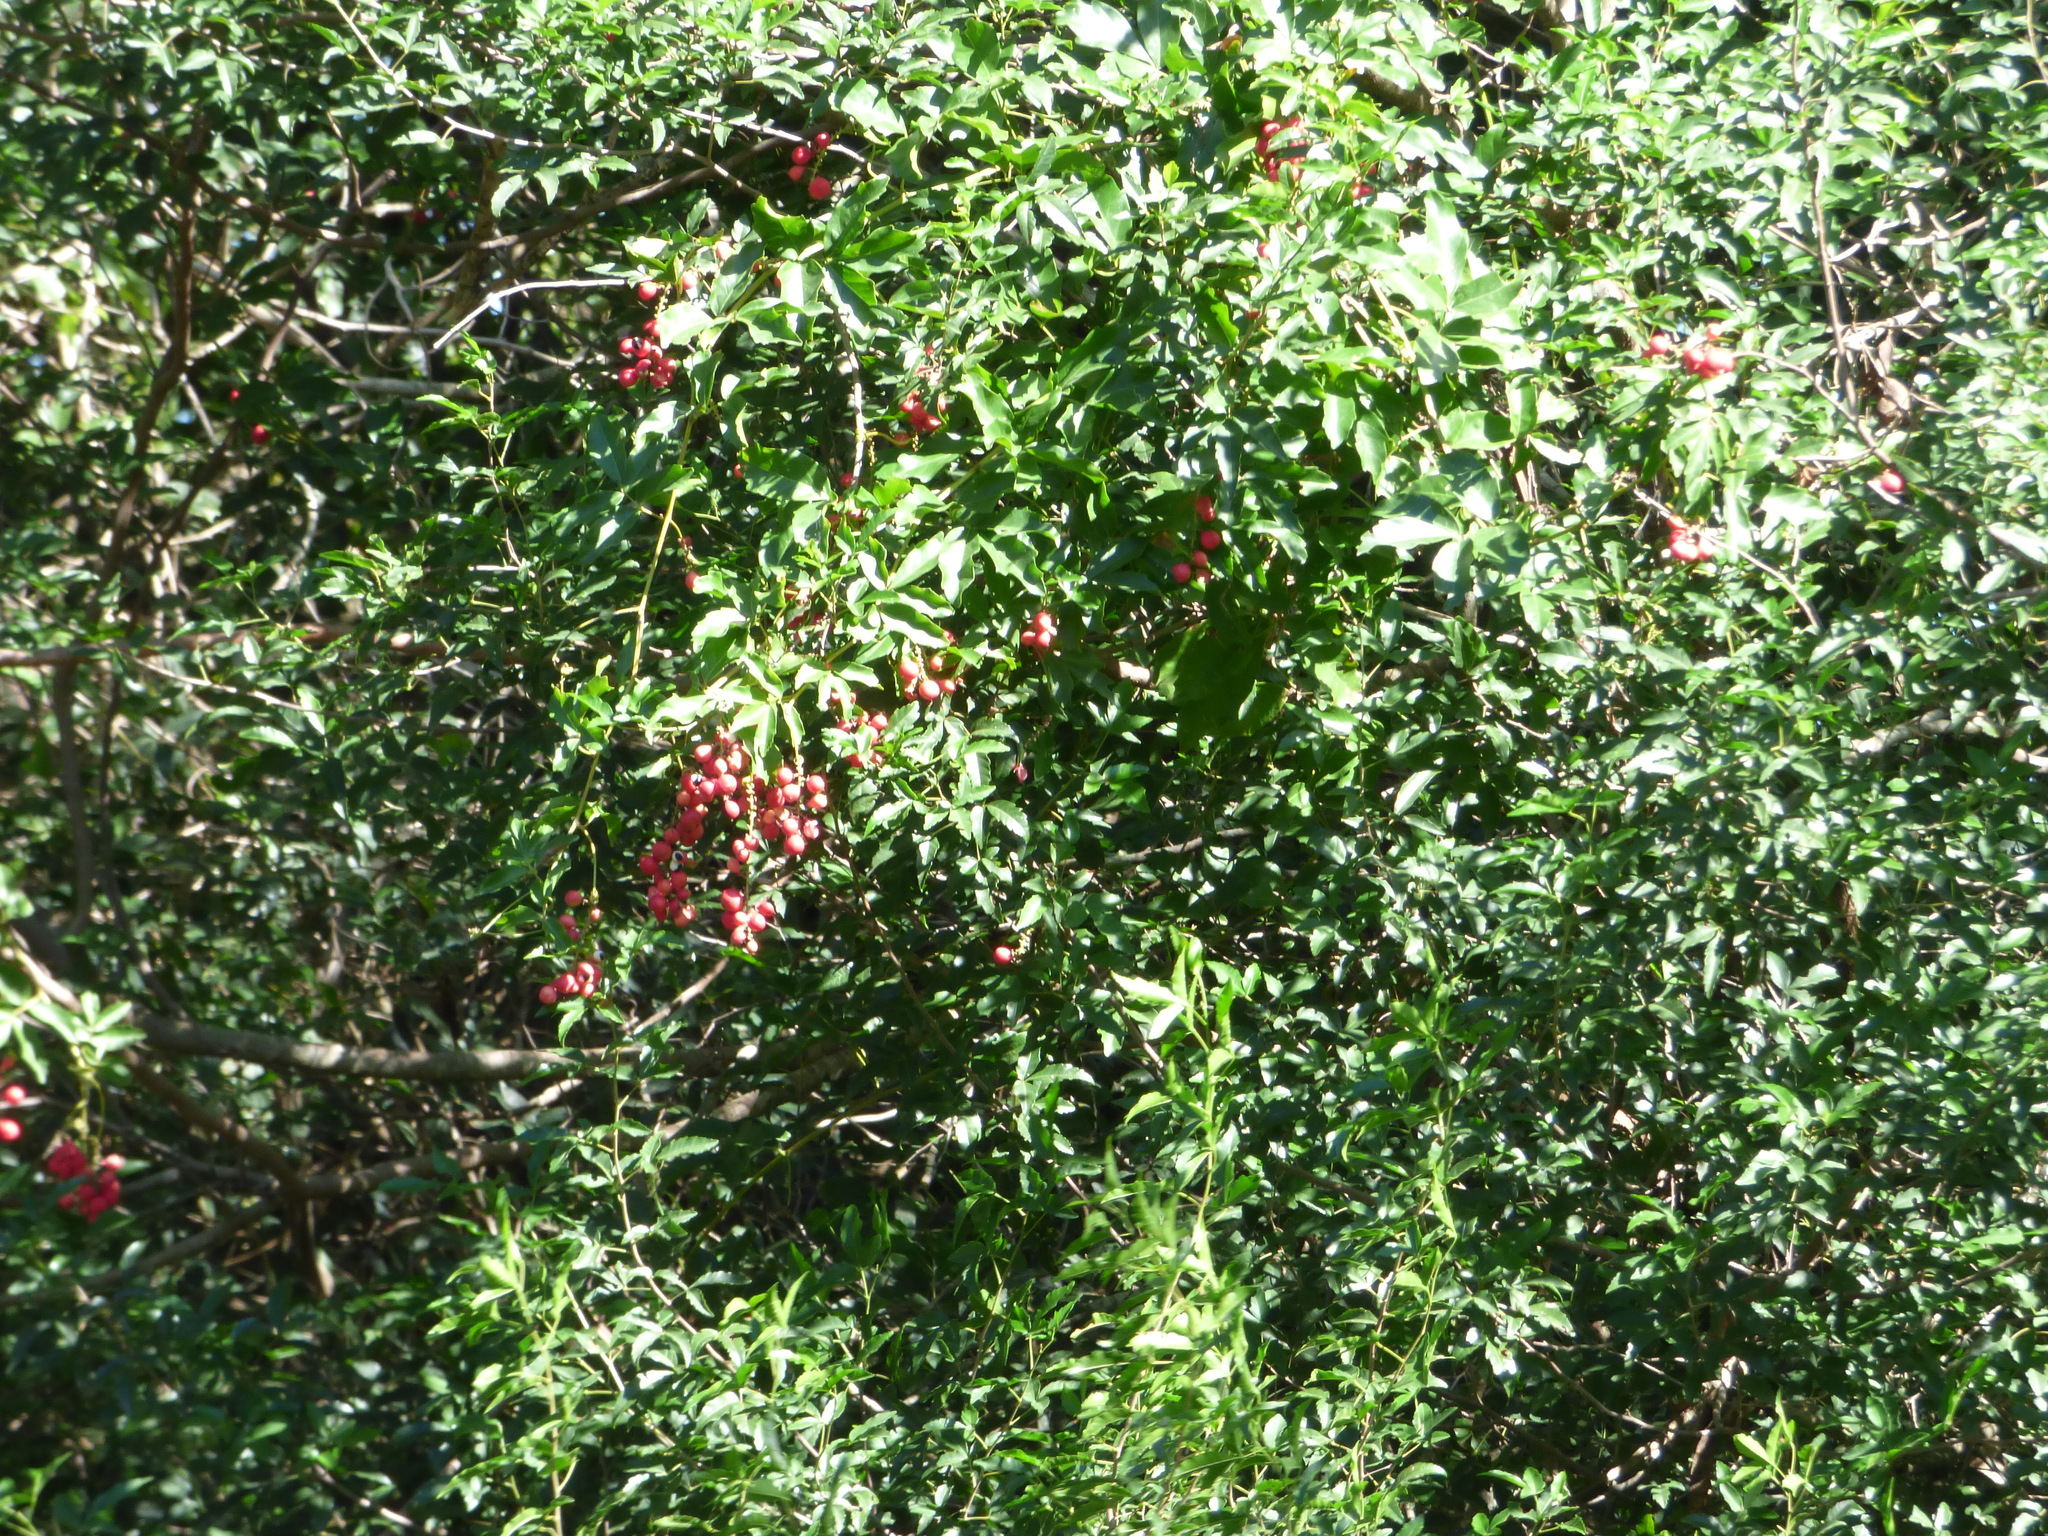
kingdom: Plantae
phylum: Tracheophyta
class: Magnoliopsida
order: Sapindales
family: Sapindaceae
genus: Paullinia
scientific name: Paullinia elegans
